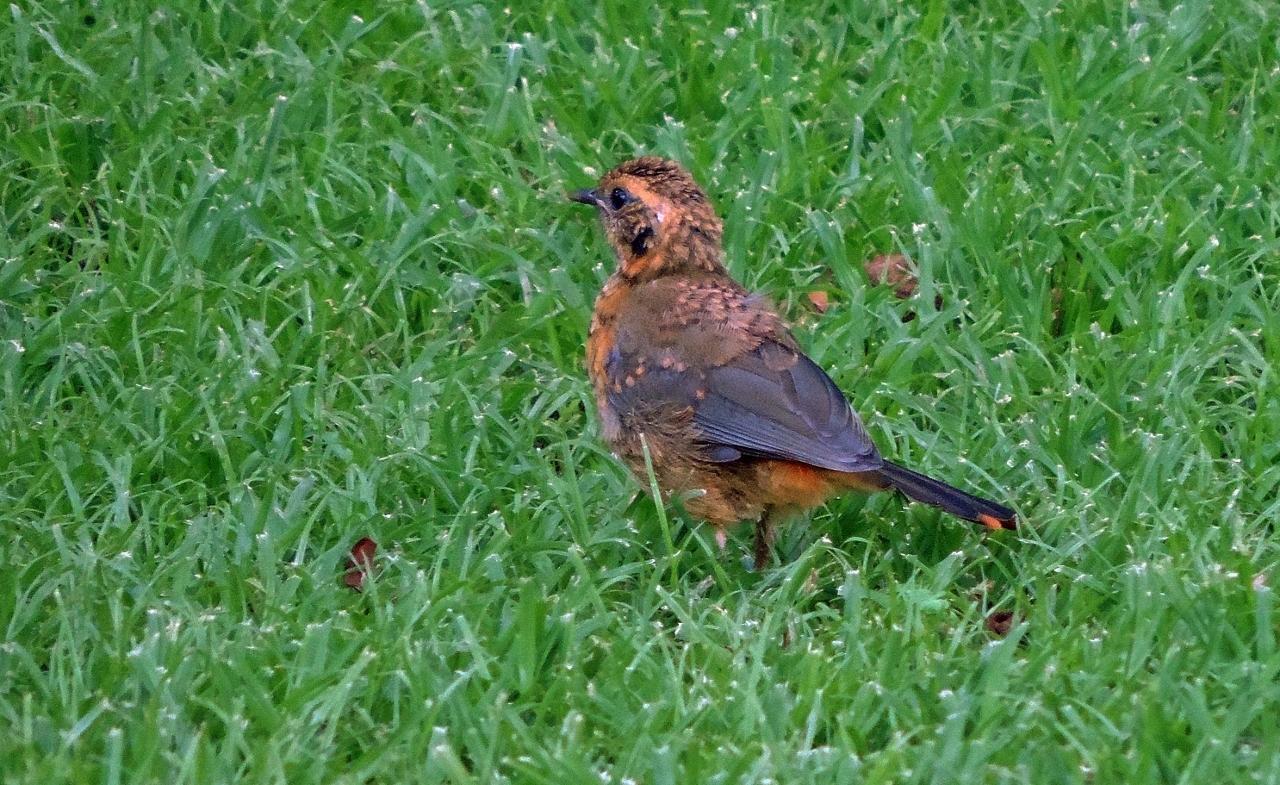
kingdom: Animalia
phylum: Chordata
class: Aves
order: Passeriformes
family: Muscicapidae
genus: Cossypha
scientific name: Cossypha heuglini
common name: White-browed robin-chat
